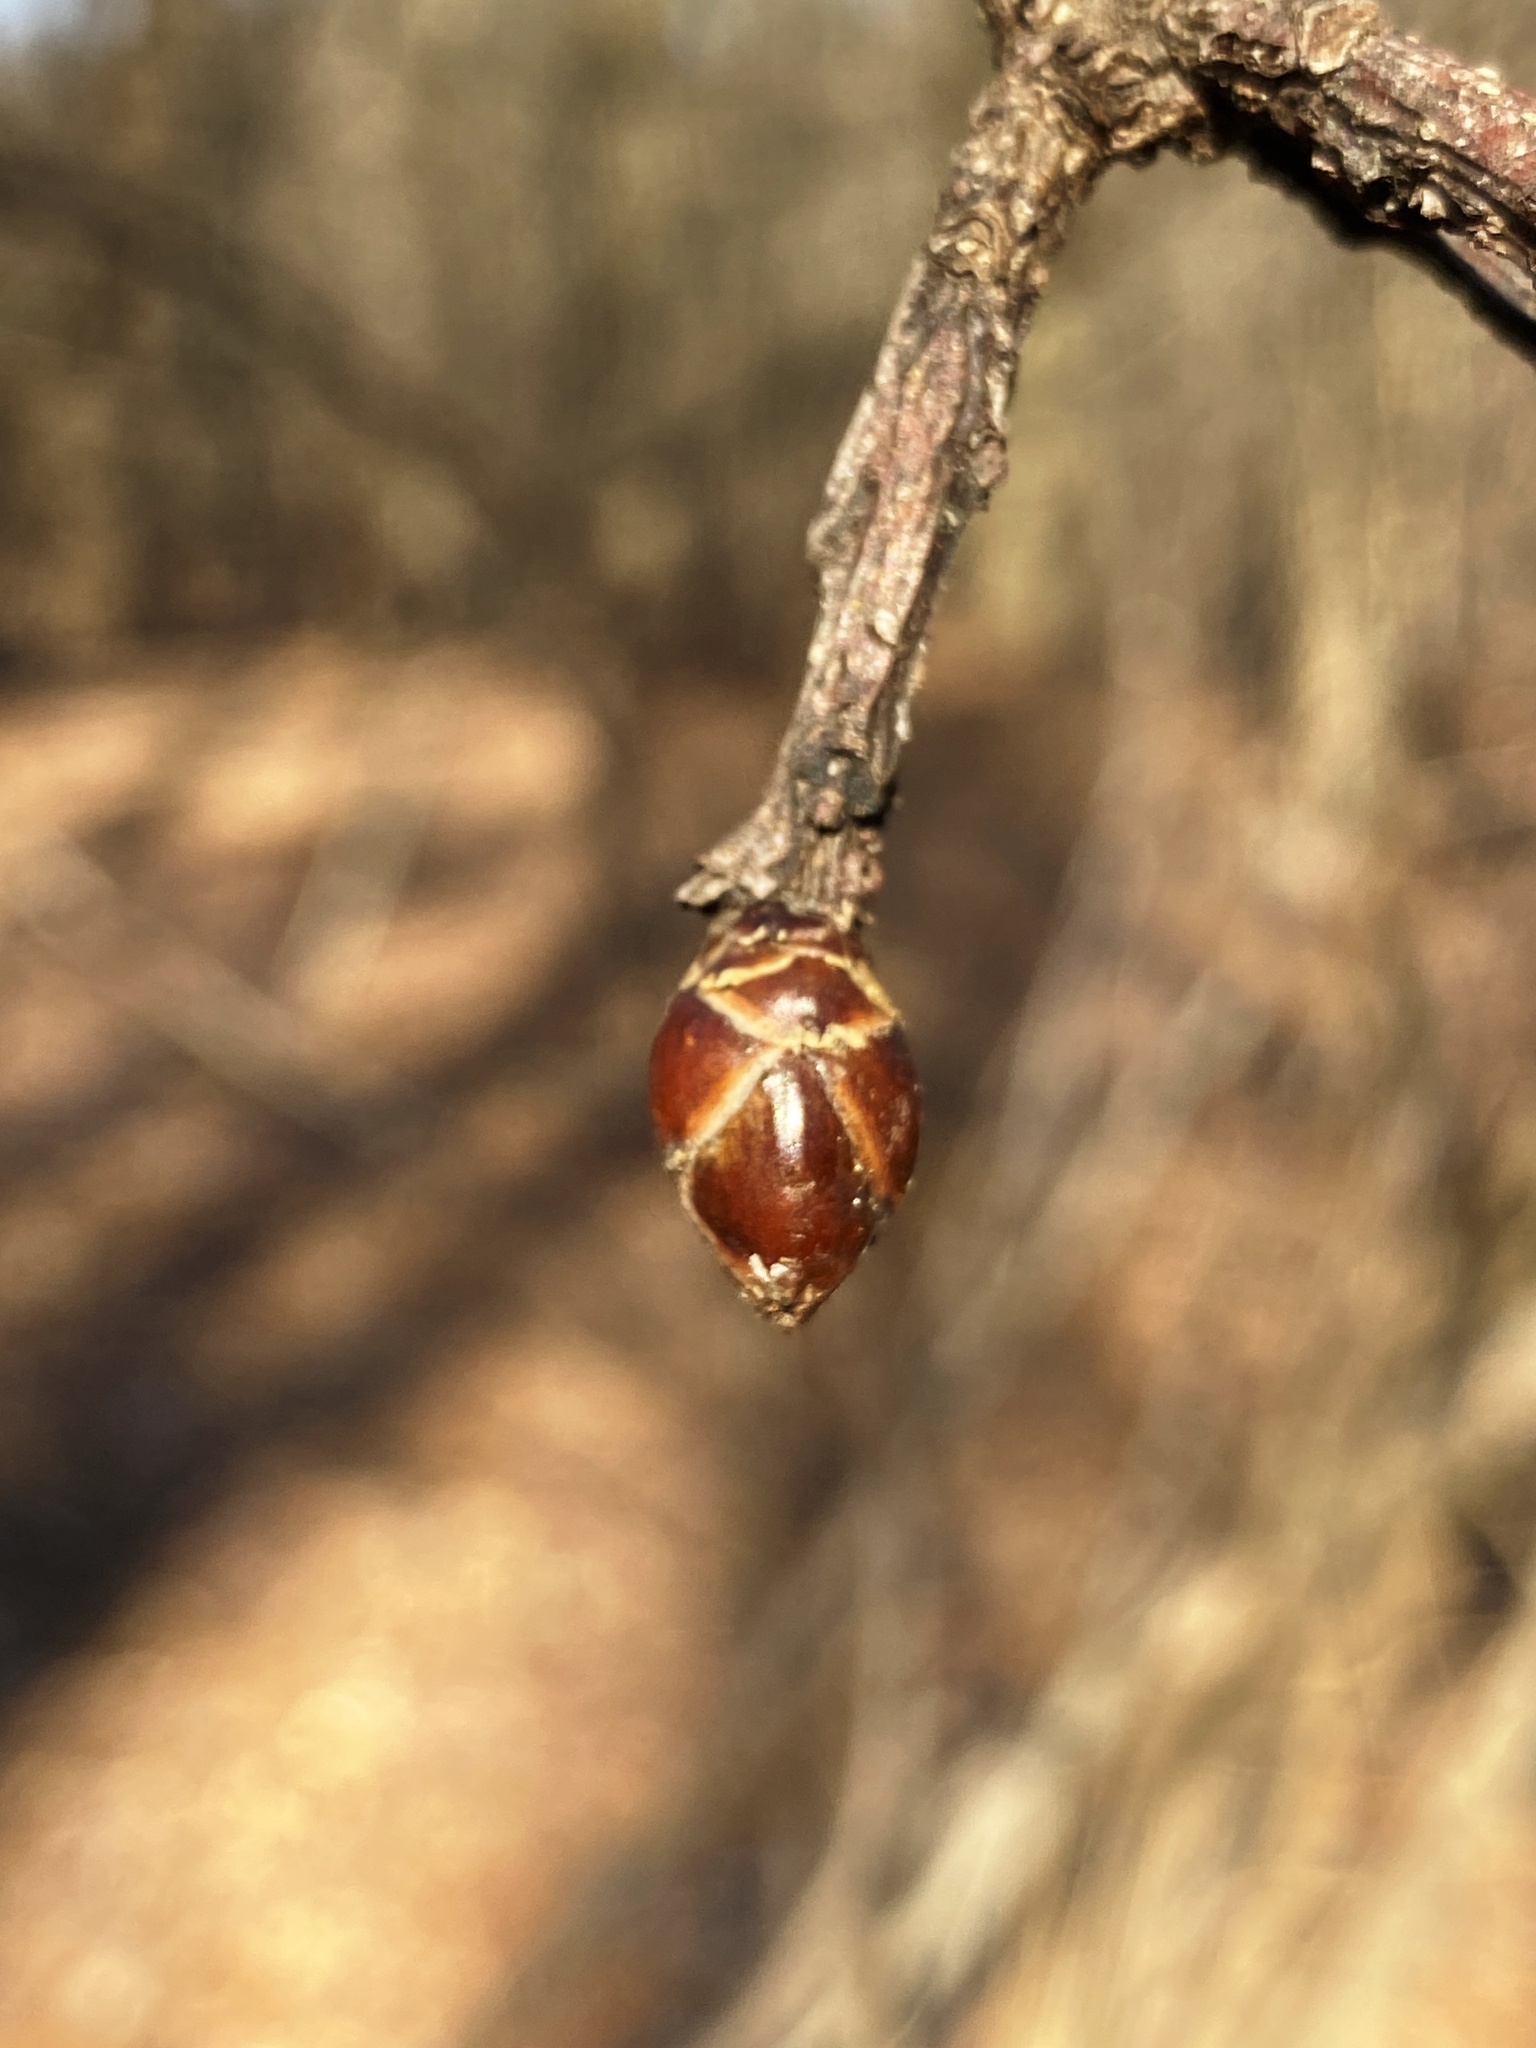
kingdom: Plantae
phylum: Tracheophyta
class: Magnoliopsida
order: Saxifragales
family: Altingiaceae
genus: Liquidambar
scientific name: Liquidambar styraciflua
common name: Sweet gum
